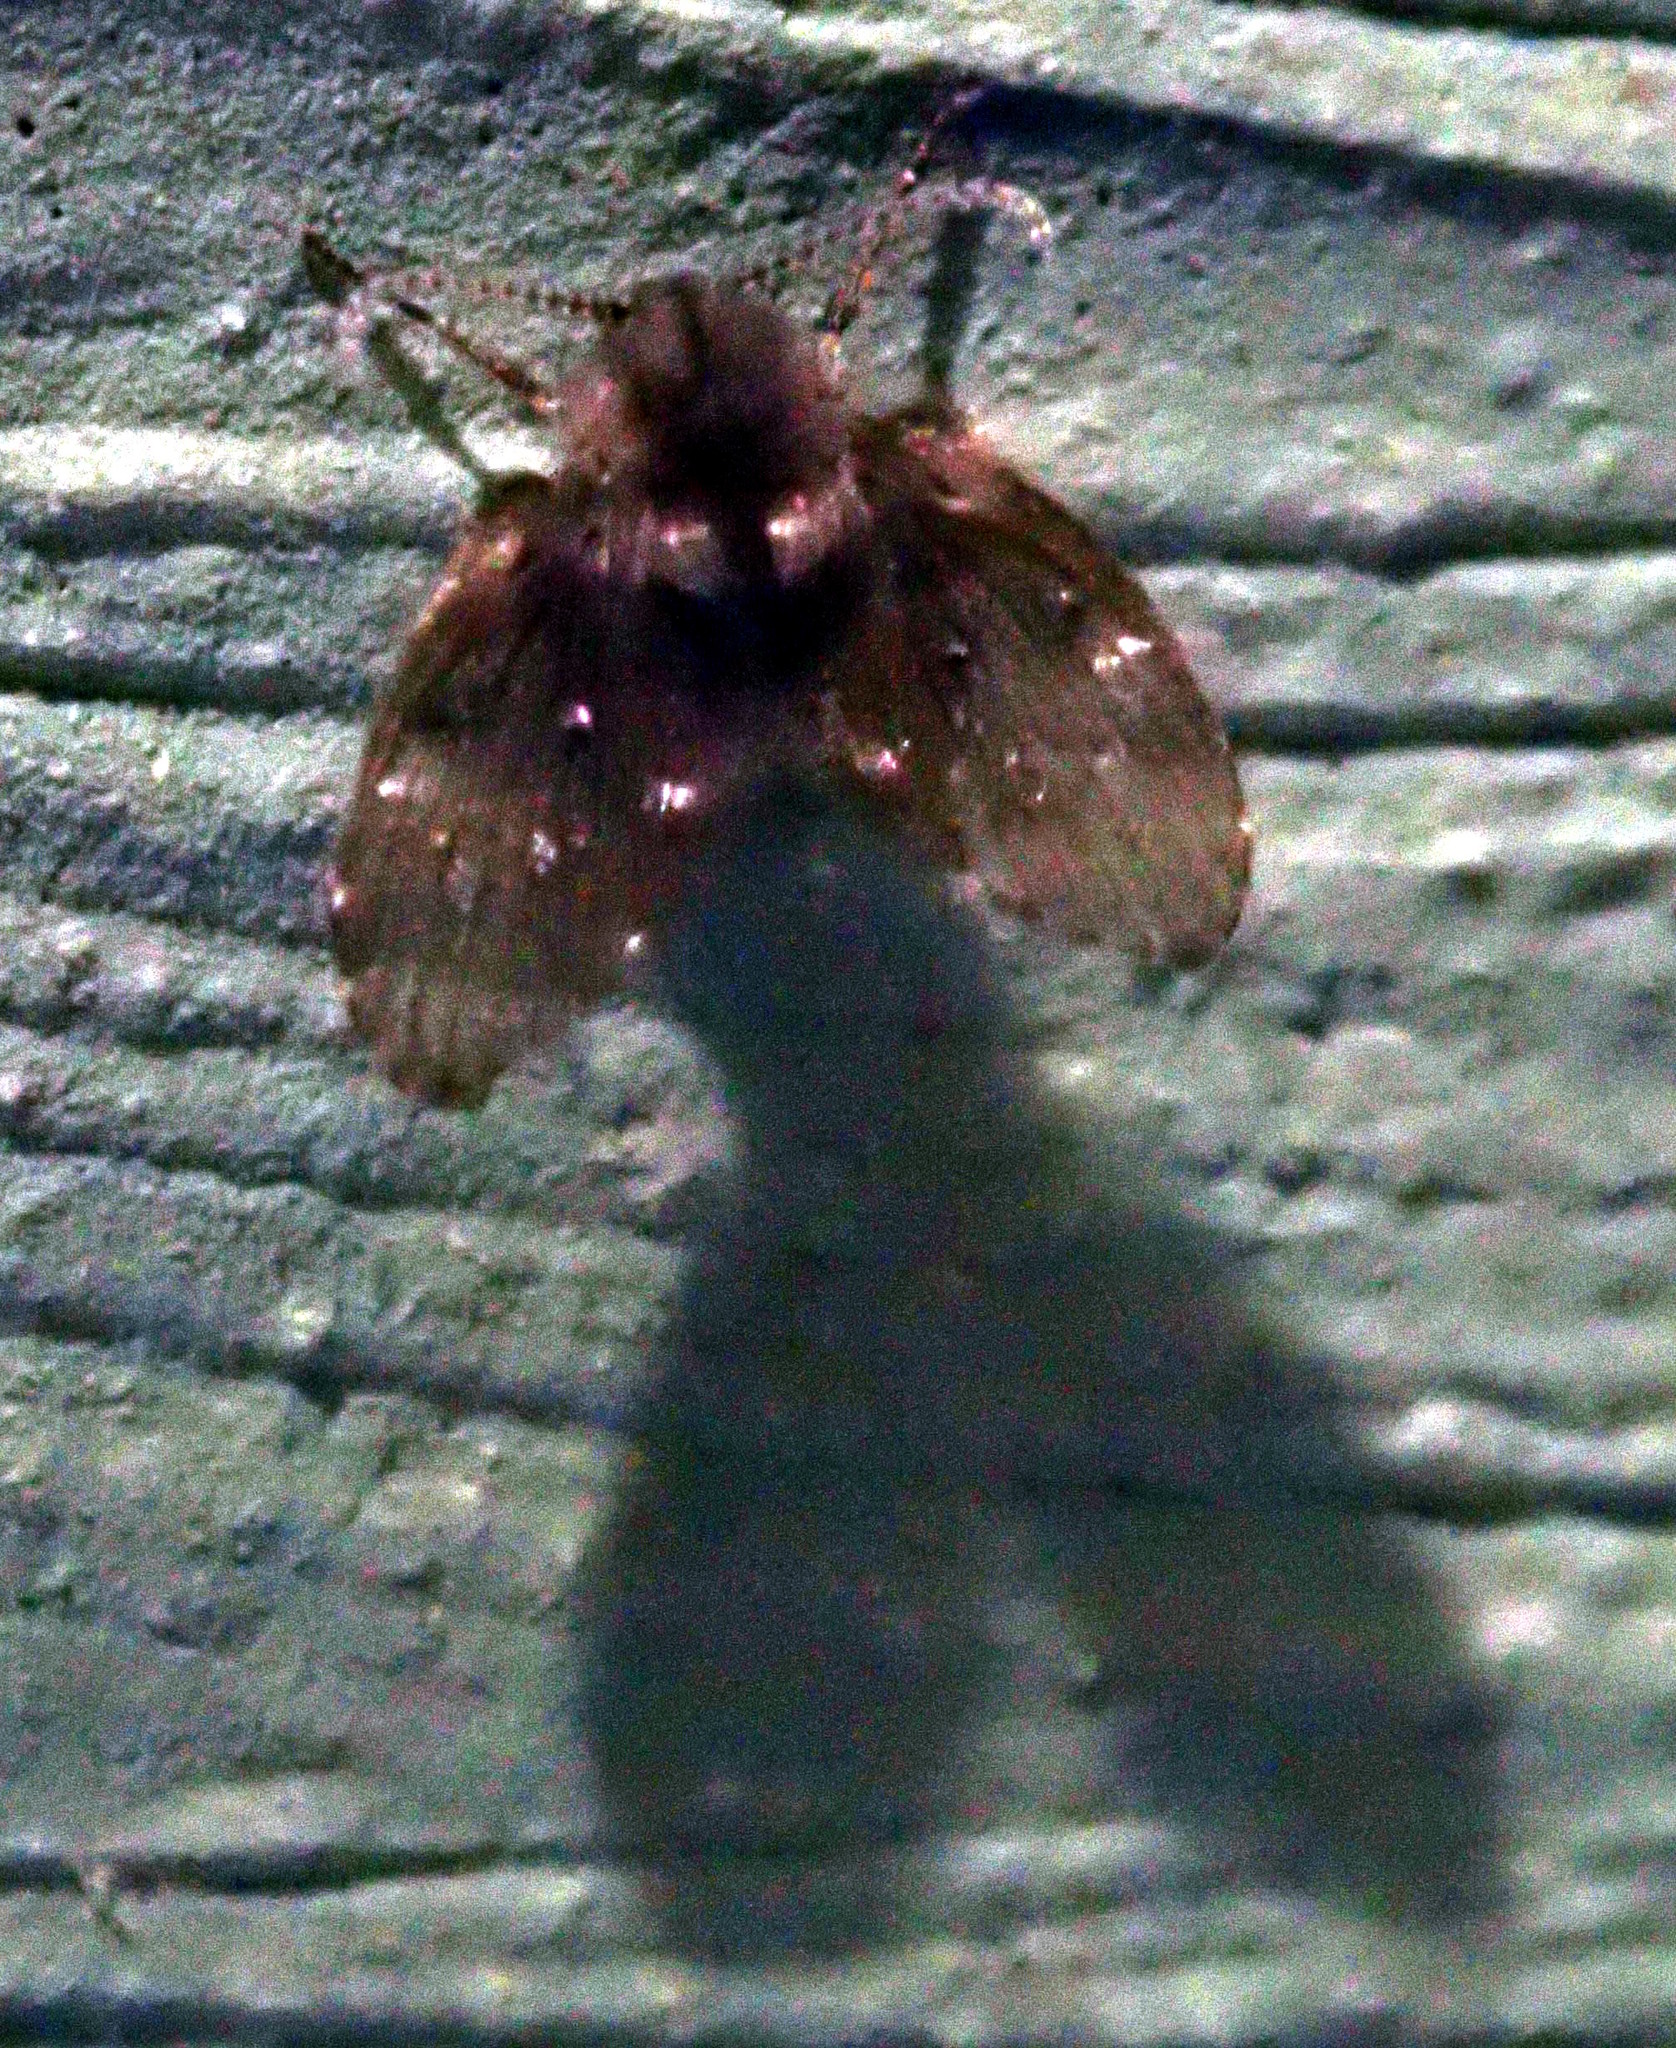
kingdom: Animalia
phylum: Arthropoda
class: Insecta
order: Diptera
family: Psychodidae
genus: Clogmia
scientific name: Clogmia albipunctatus
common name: White-spotted moth fly
